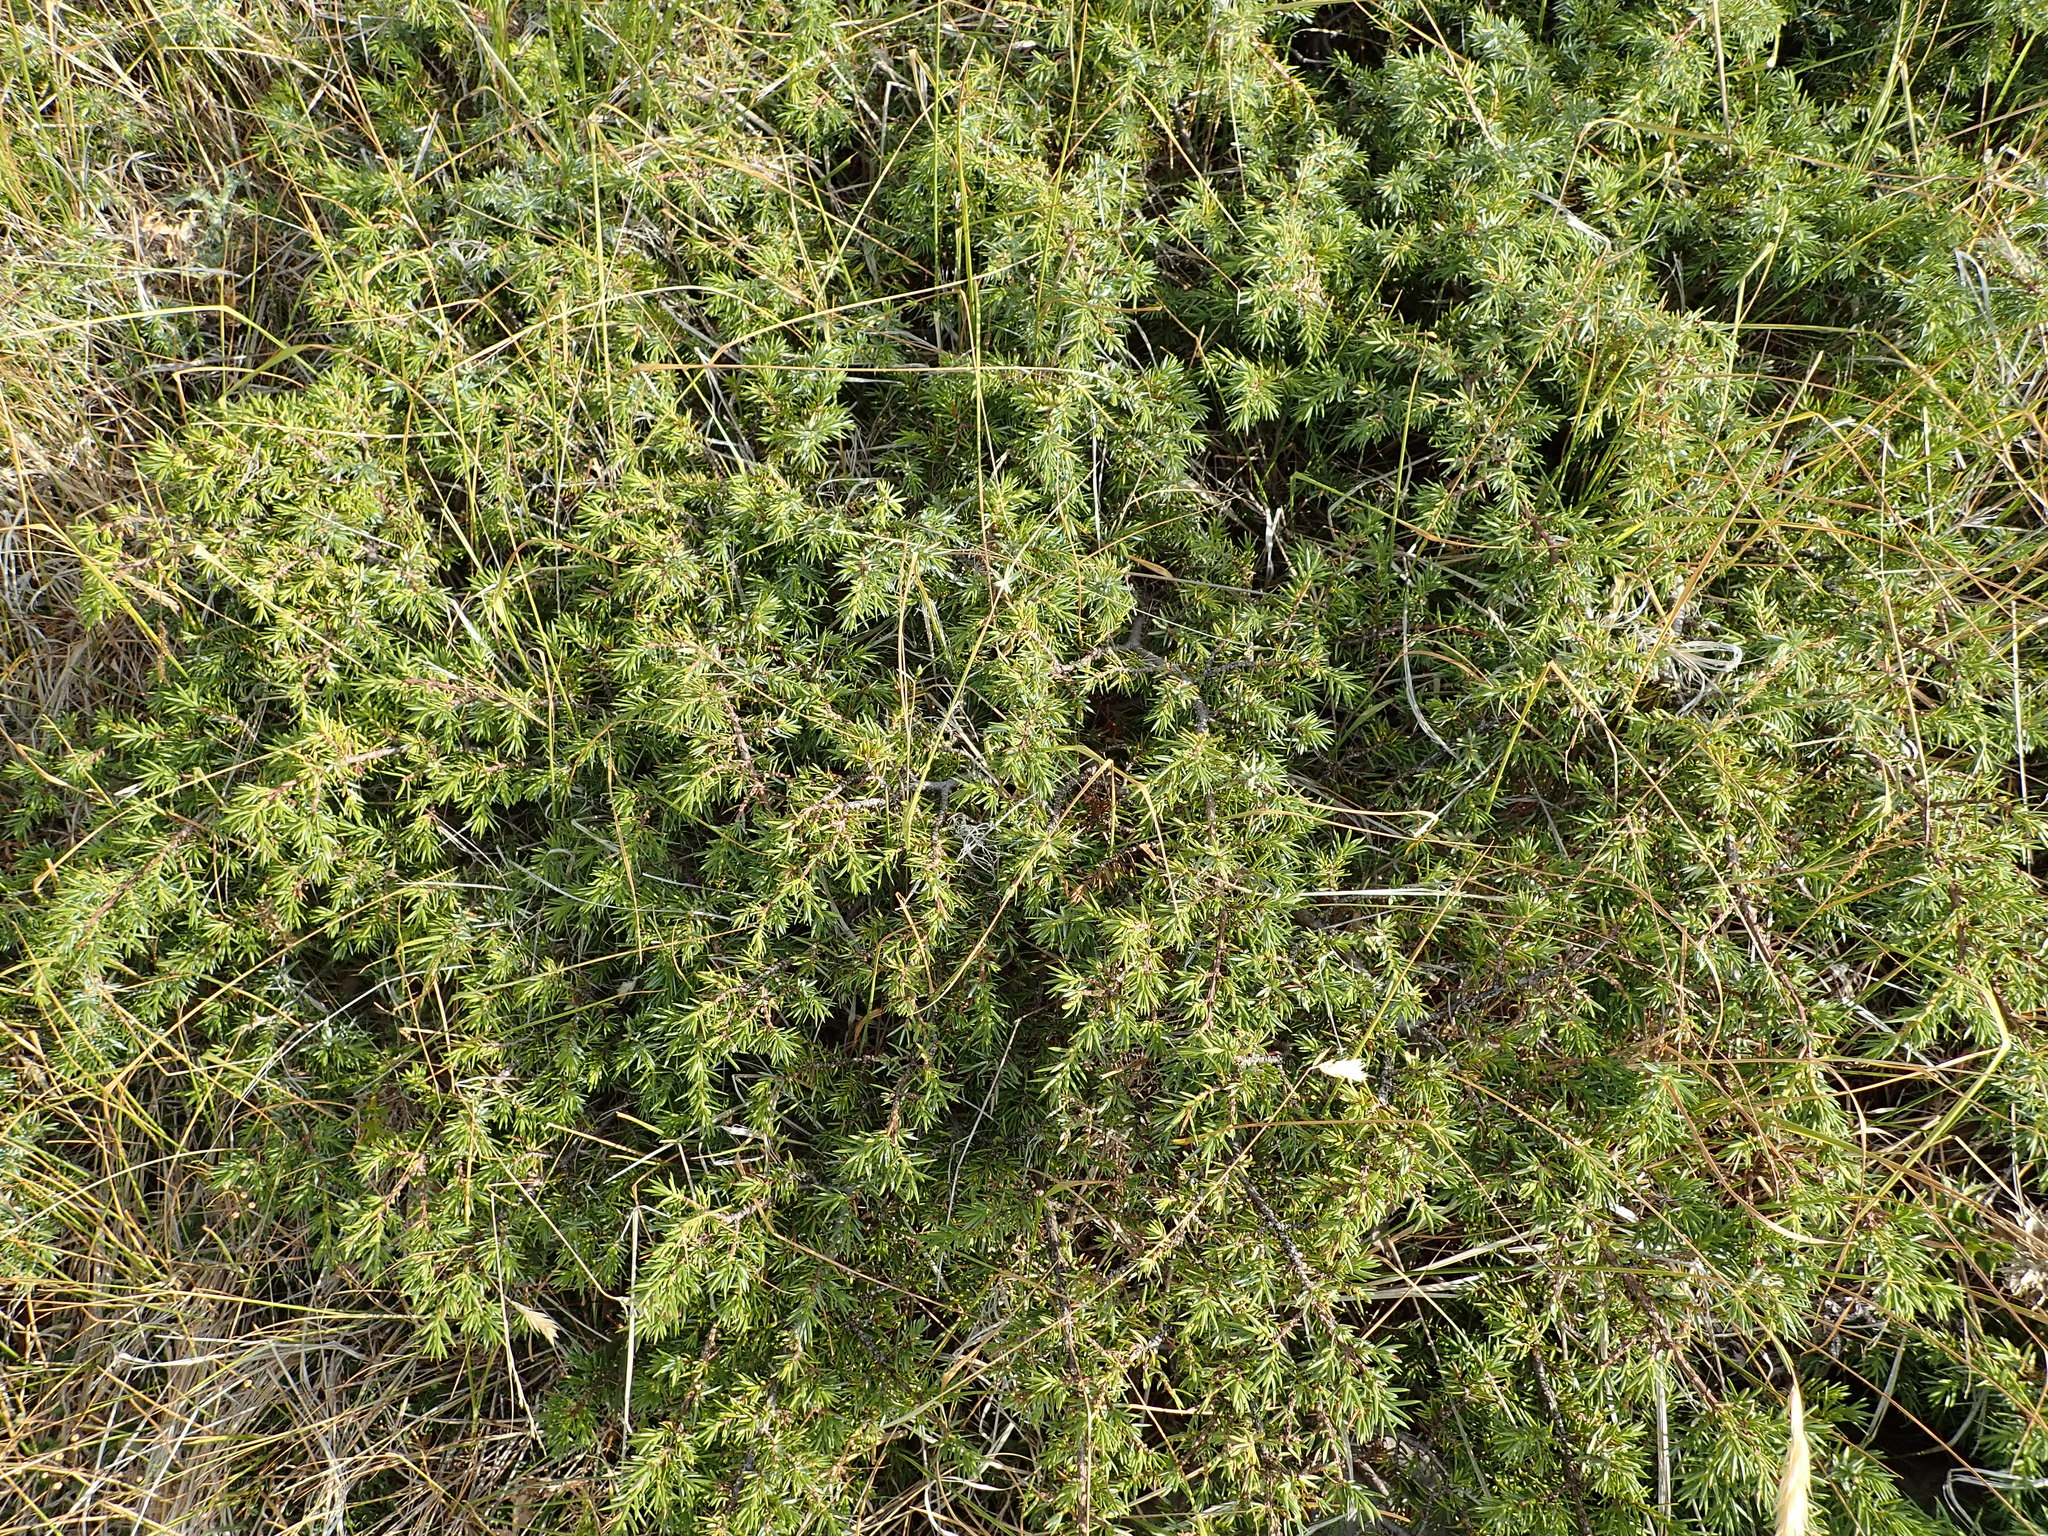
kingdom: Plantae
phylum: Tracheophyta
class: Pinopsida
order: Pinales
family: Cupressaceae
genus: Juniperus
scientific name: Juniperus communis
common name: Common juniper
